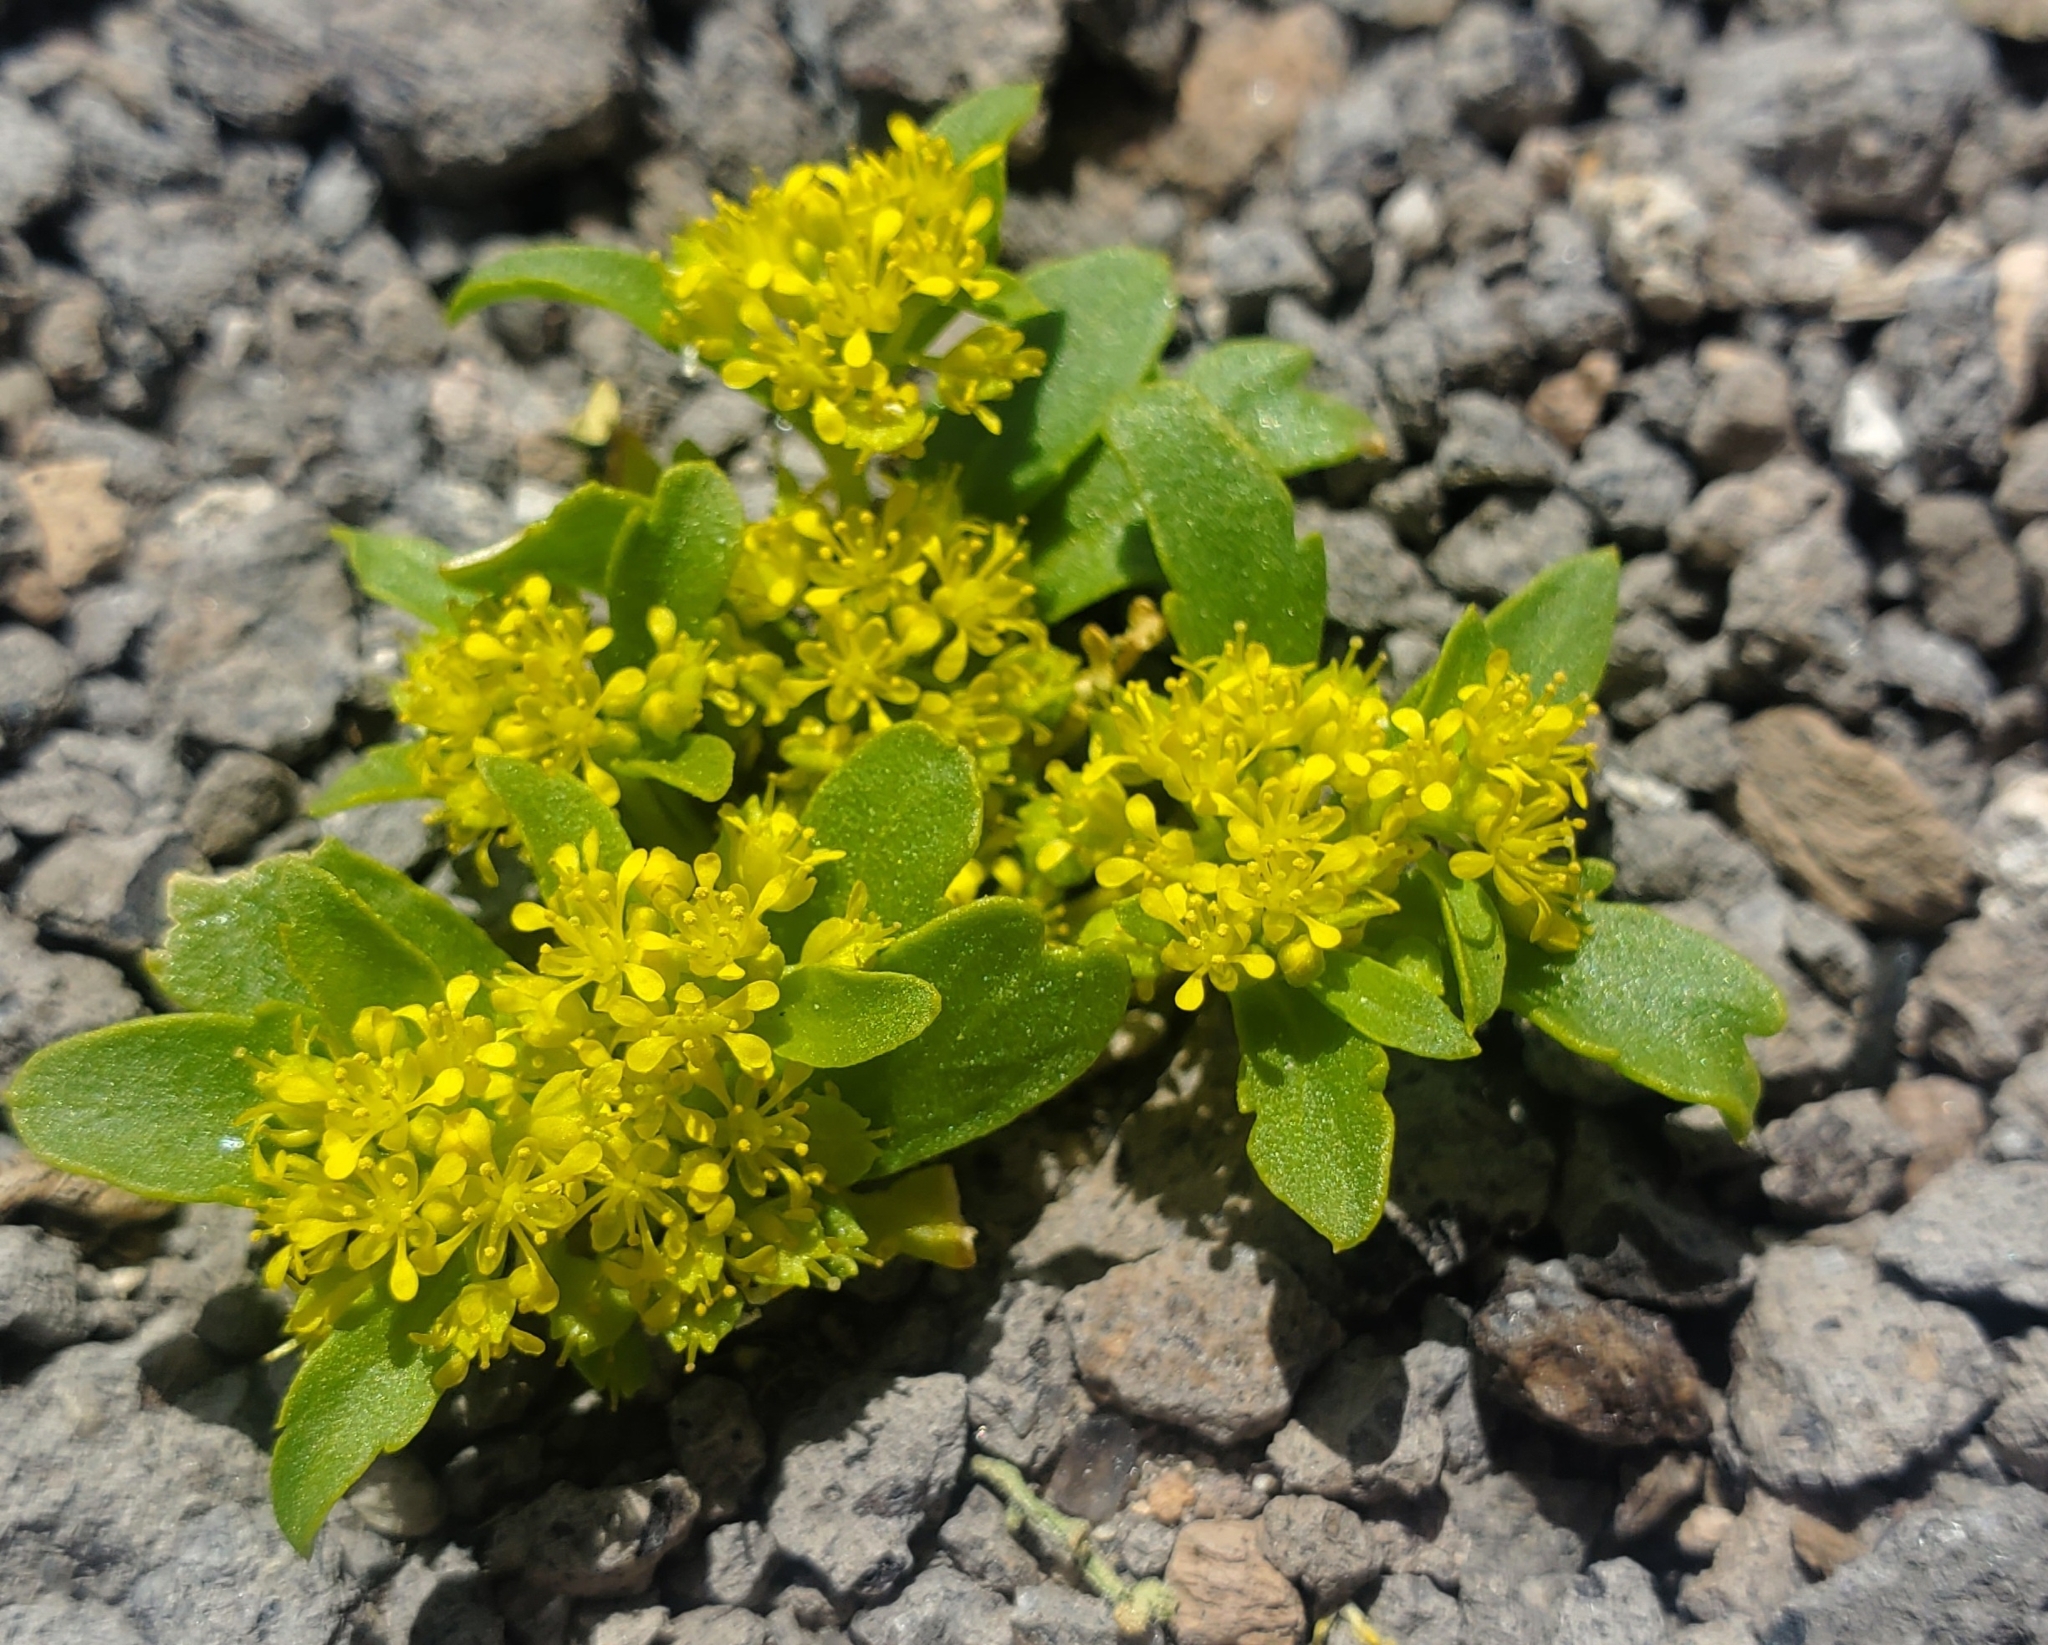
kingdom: Plantae
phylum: Tracheophyta
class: Magnoliopsida
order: Brassicales
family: Brassicaceae
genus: Lepidium
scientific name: Lepidium flavum
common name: Yellow pepperwort
